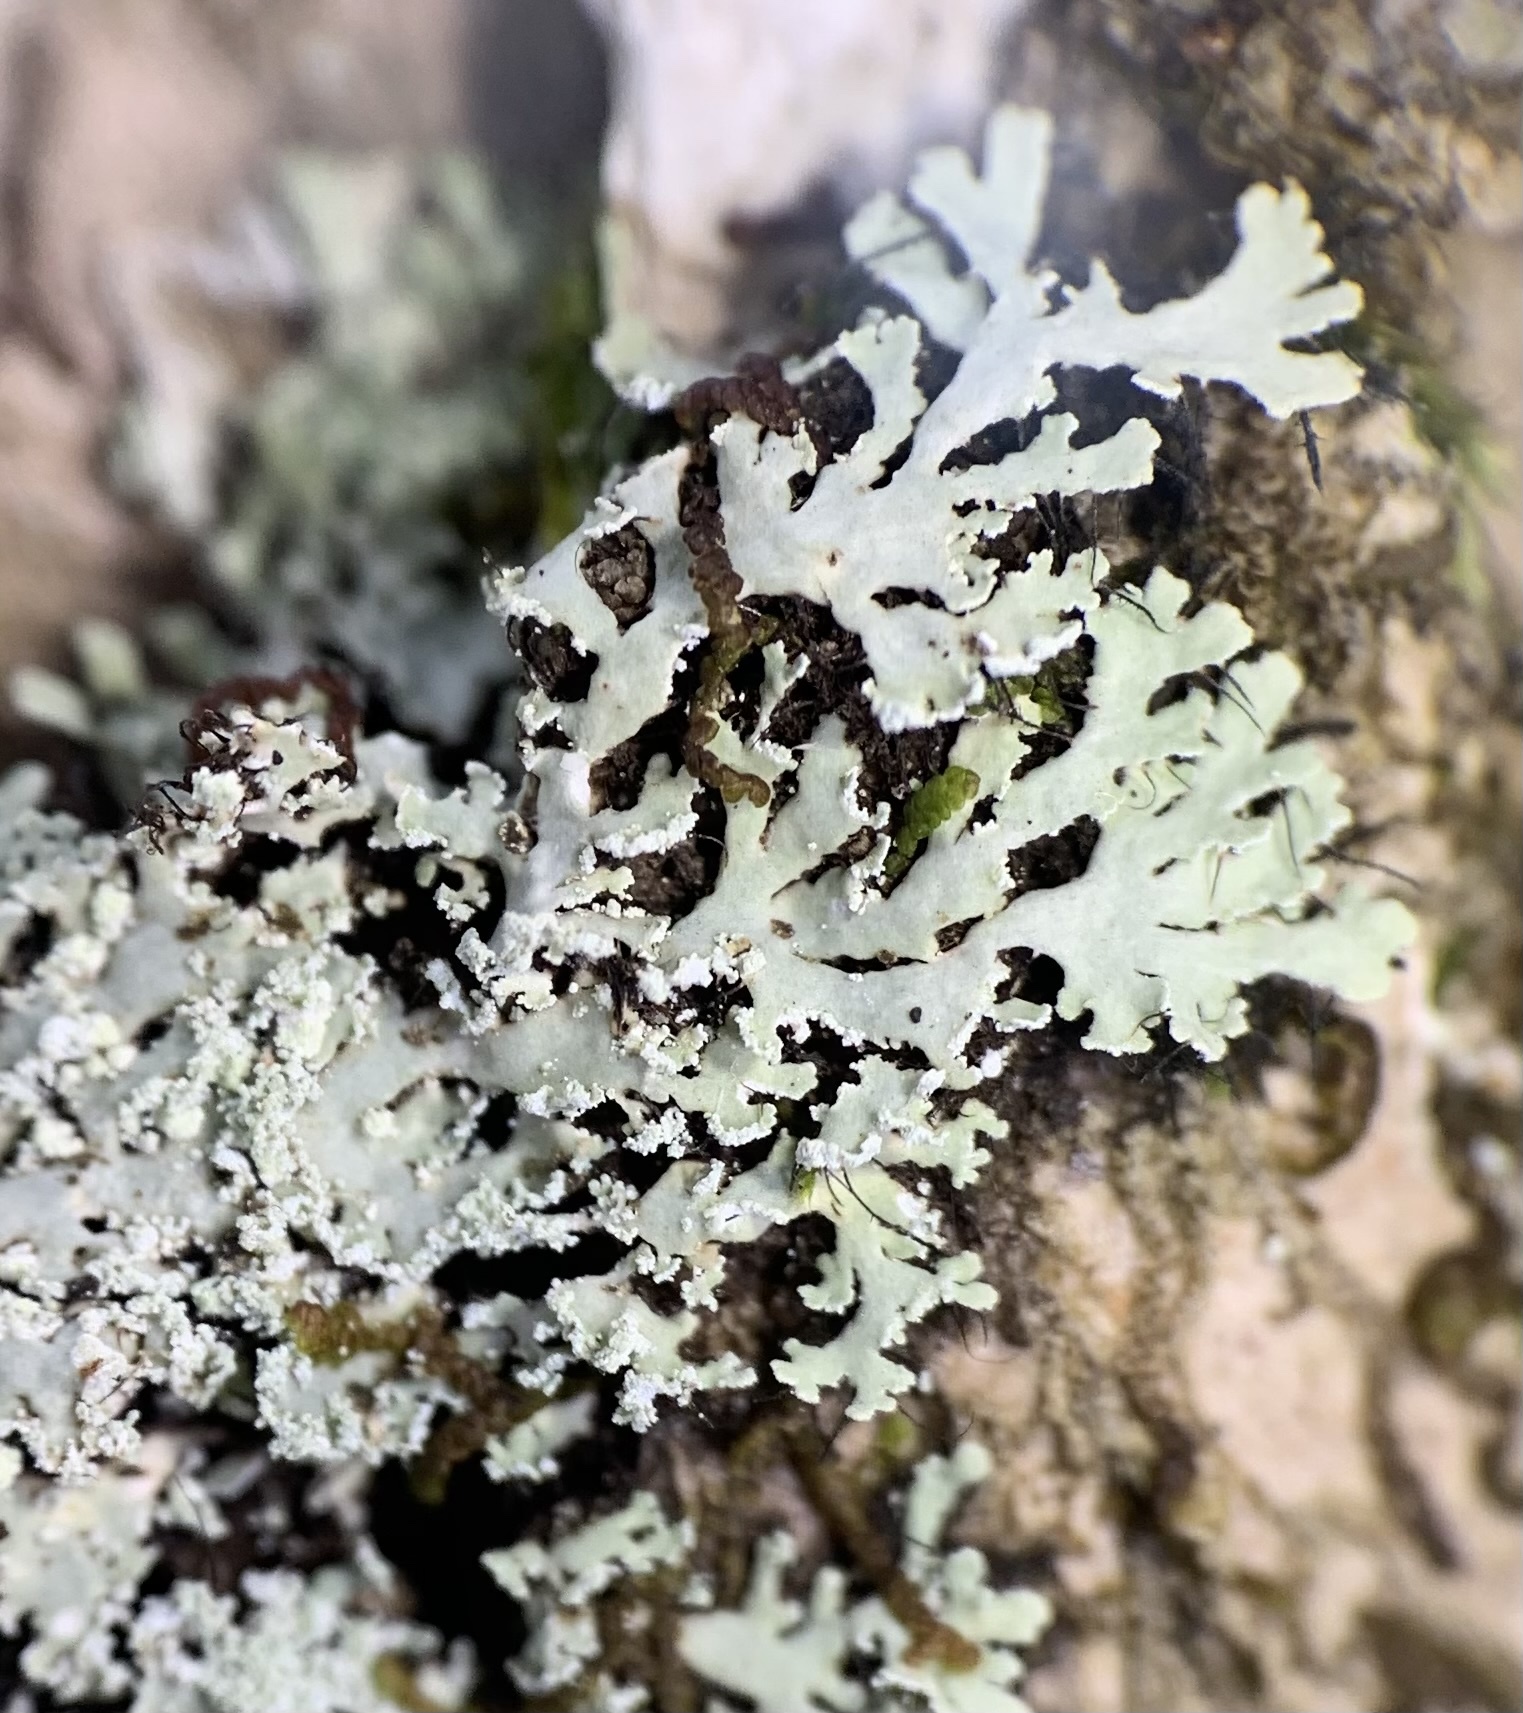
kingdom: Fungi
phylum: Ascomycota
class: Lecanoromycetes
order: Caliciales
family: Physciaceae
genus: Polyblastidium
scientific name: Polyblastidium japonicum
